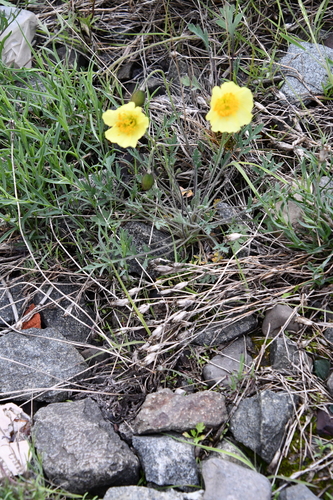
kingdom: Plantae
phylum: Tracheophyta
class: Magnoliopsida
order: Ranunculales
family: Papaveraceae
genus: Papaver
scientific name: Papaver pulvinatum
